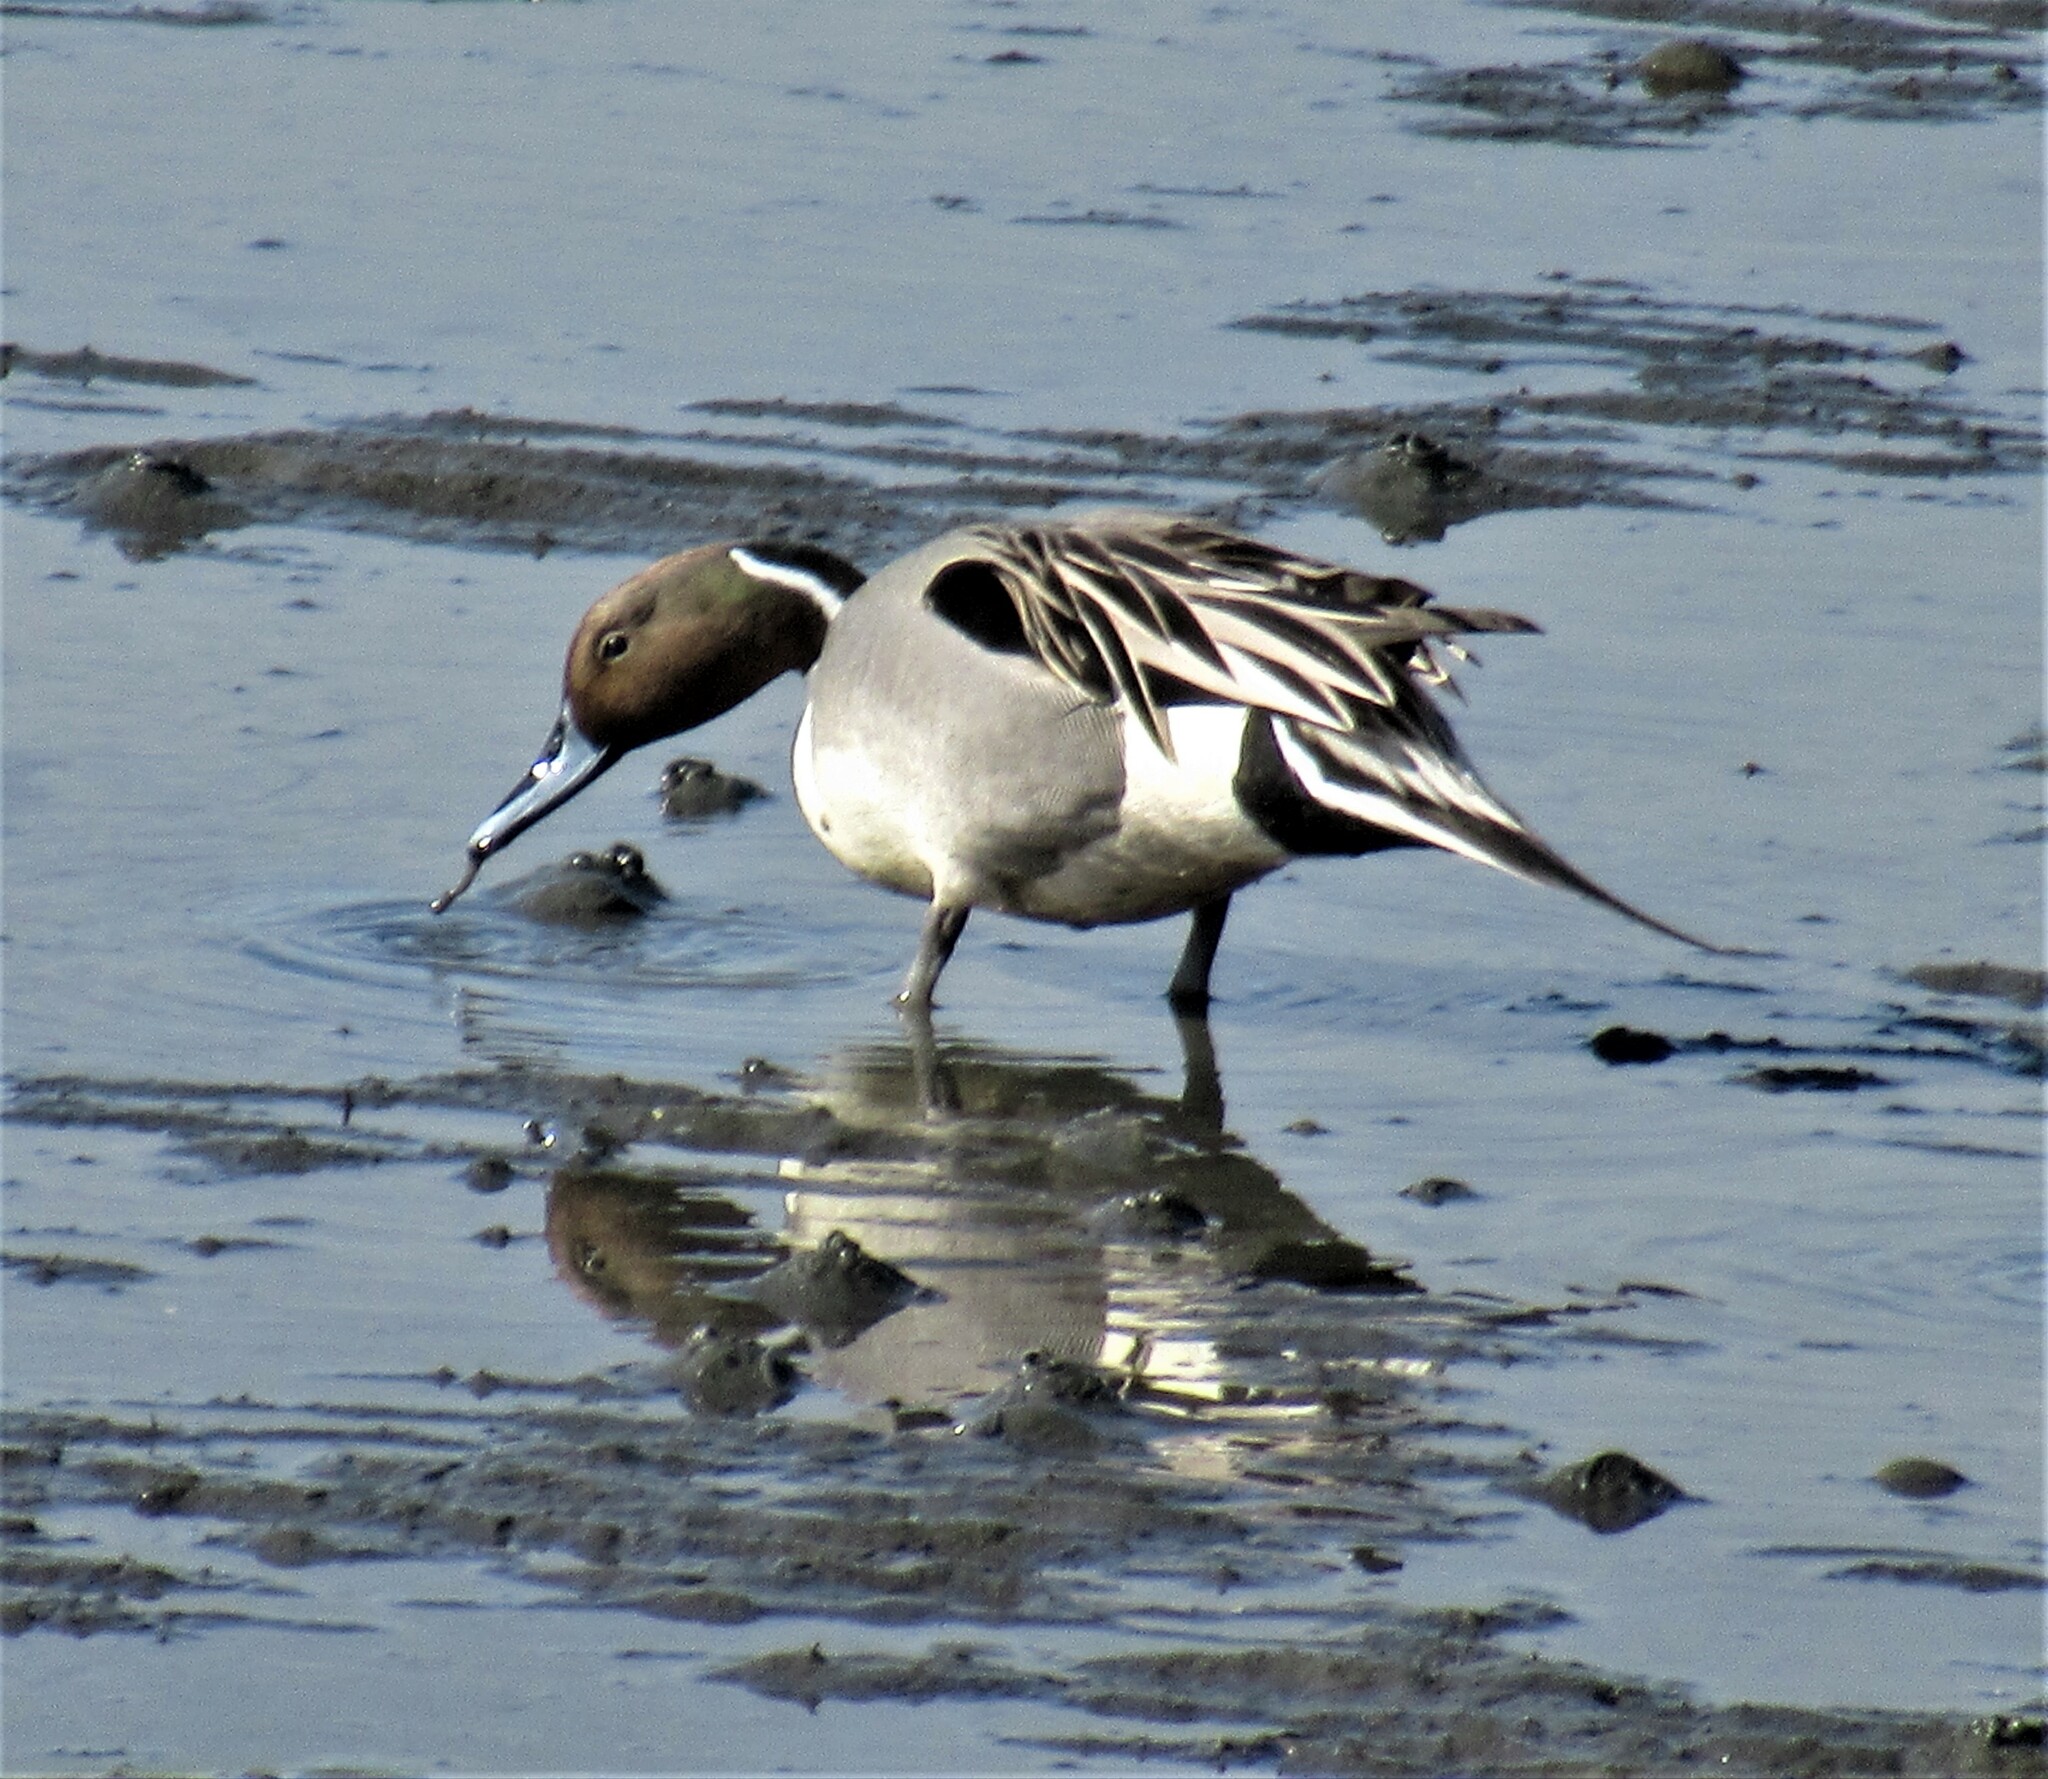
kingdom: Animalia
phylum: Chordata
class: Aves
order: Anseriformes
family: Anatidae
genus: Anas
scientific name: Anas acuta
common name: Northern pintail
